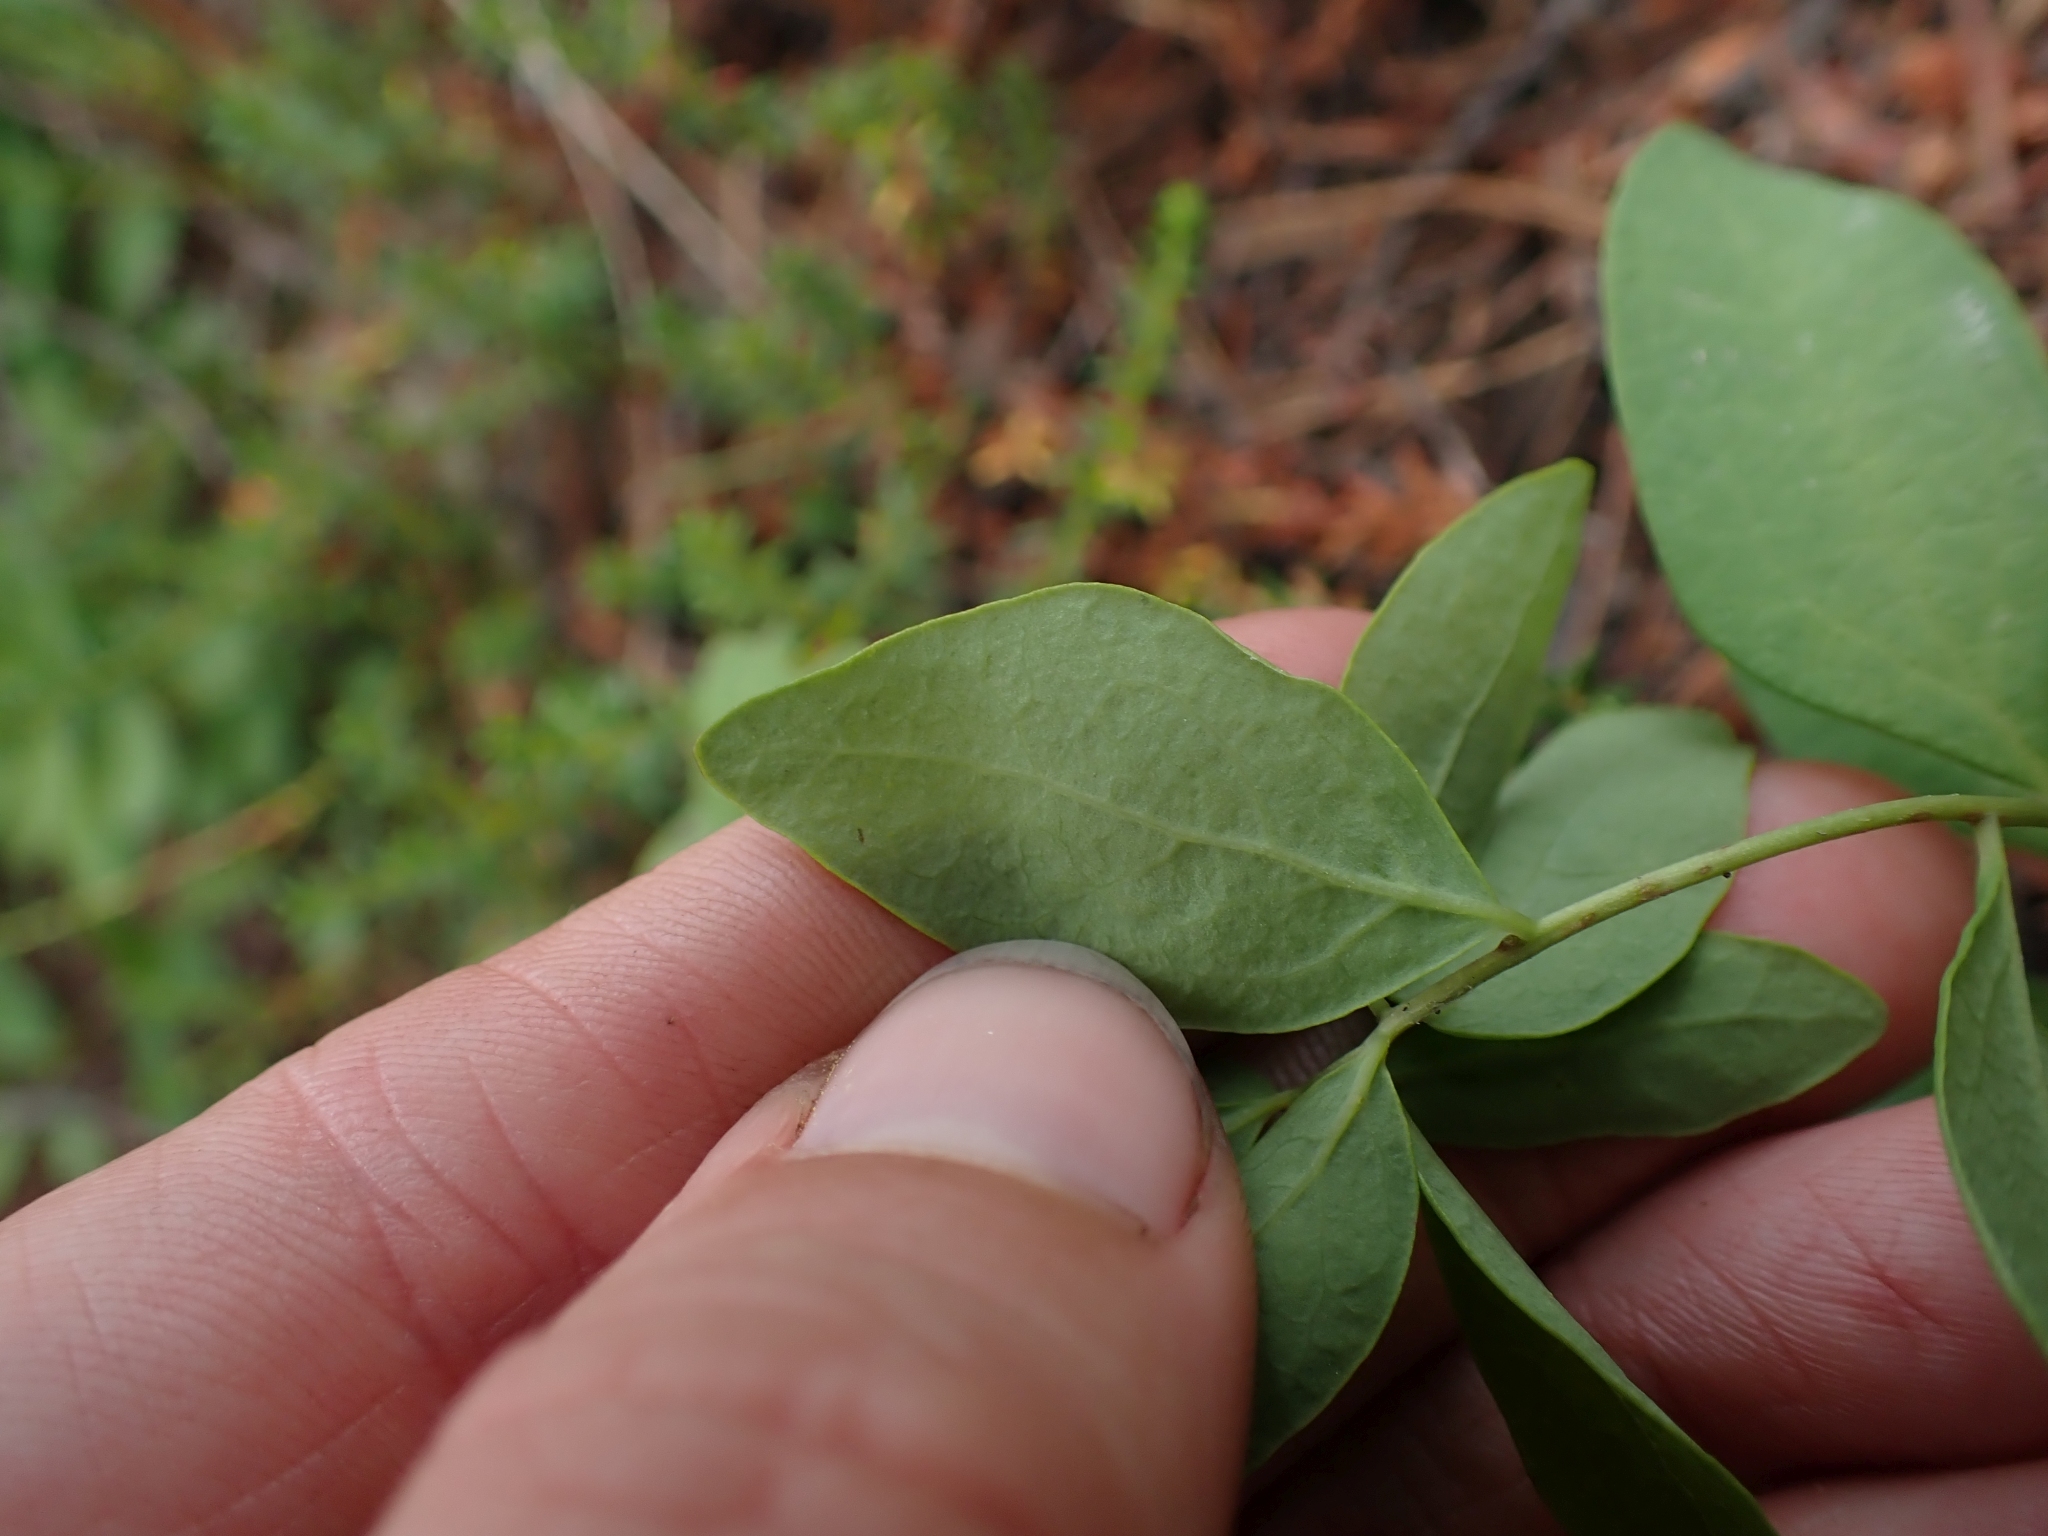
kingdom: Plantae
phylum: Tracheophyta
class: Magnoliopsida
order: Santalales
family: Comandraceae
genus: Geocaulon
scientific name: Geocaulon lividum
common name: Earthberry
